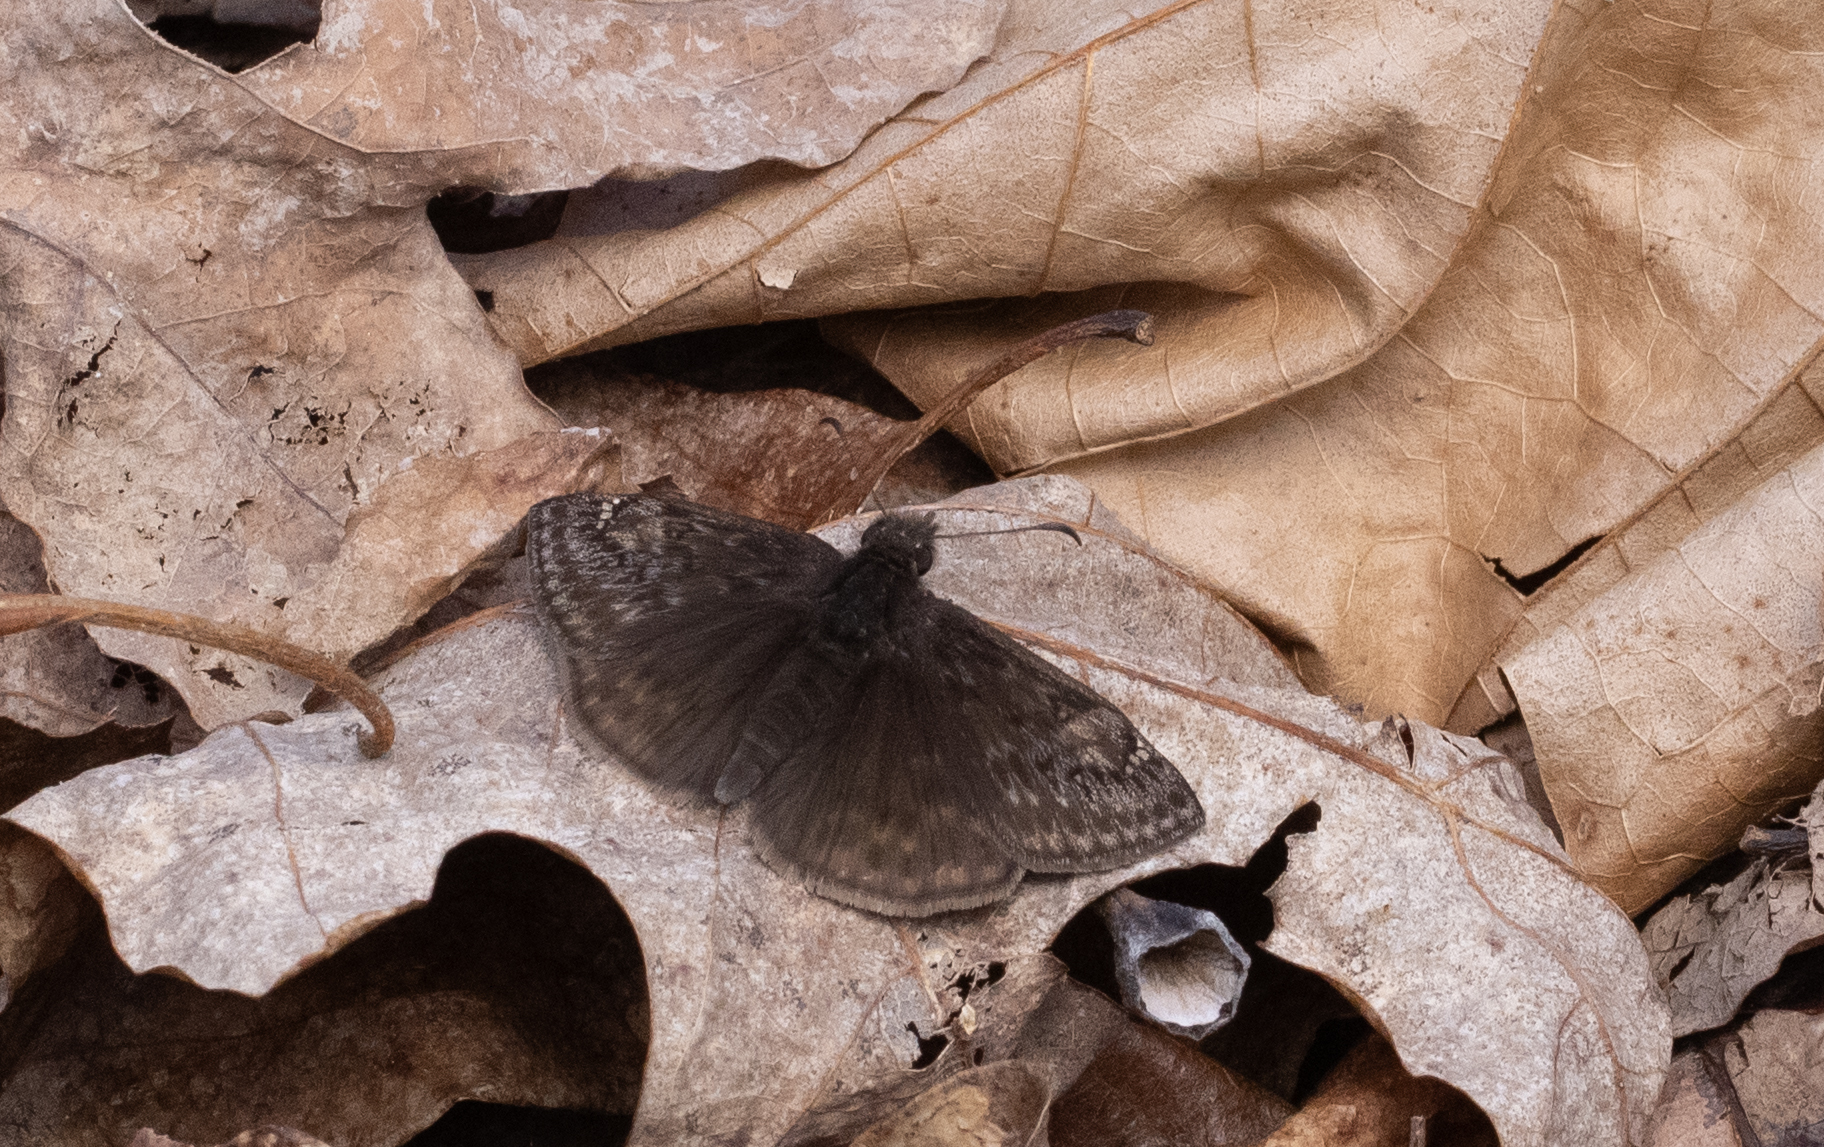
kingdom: Animalia
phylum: Arthropoda
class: Insecta
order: Lepidoptera
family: Hesperiidae
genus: Erynnis
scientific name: Erynnis juvenalis
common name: Juvenal's duskywing
